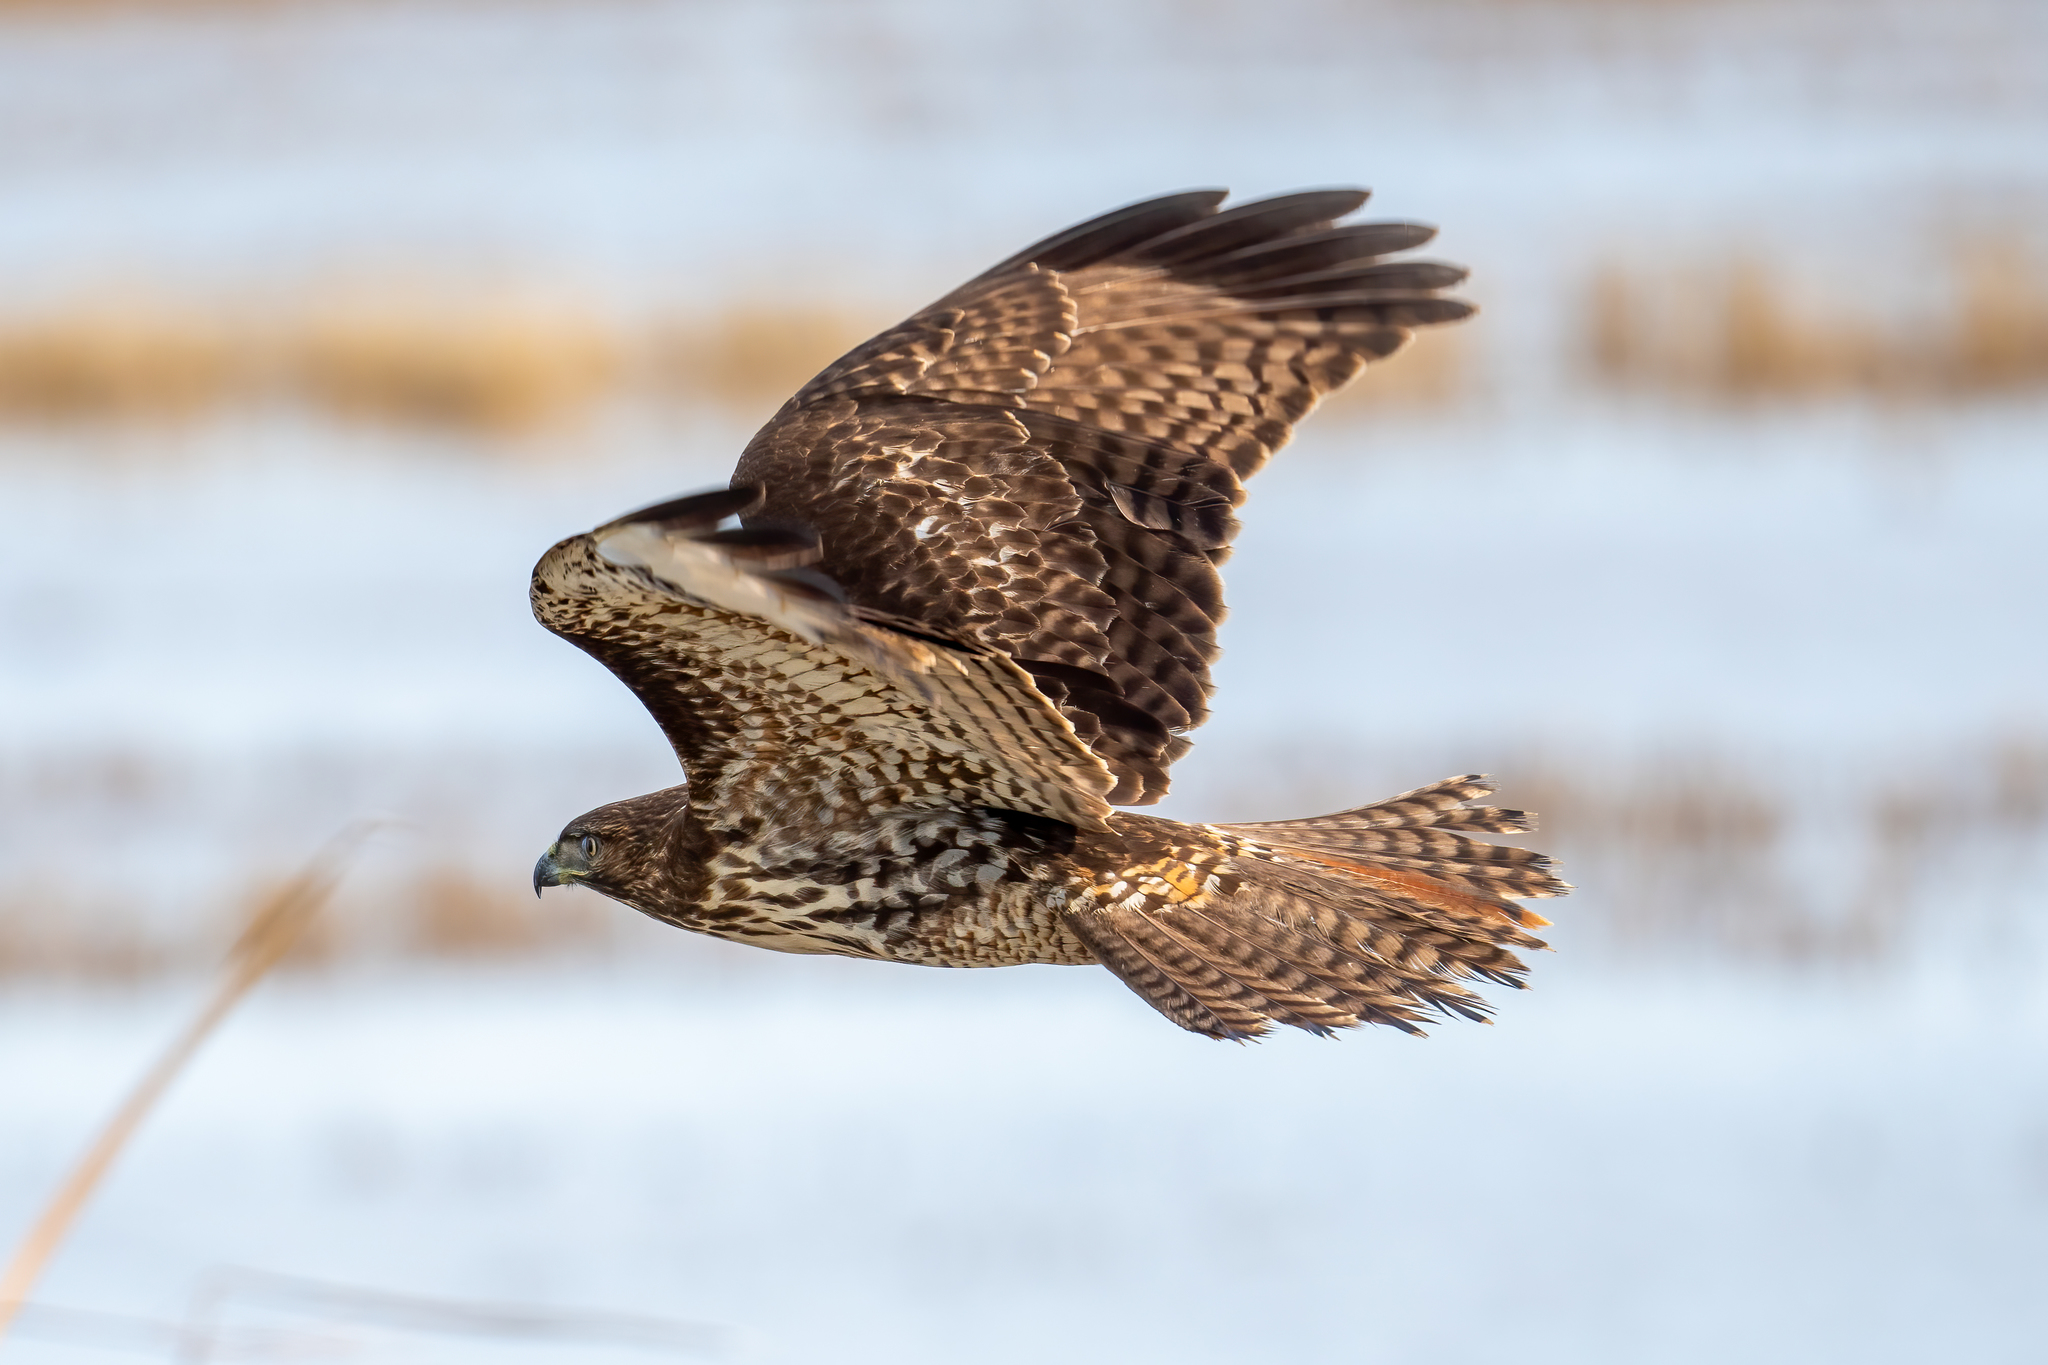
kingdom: Animalia
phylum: Chordata
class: Aves
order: Accipitriformes
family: Accipitridae
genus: Buteo
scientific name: Buteo jamaicensis
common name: Red-tailed hawk
